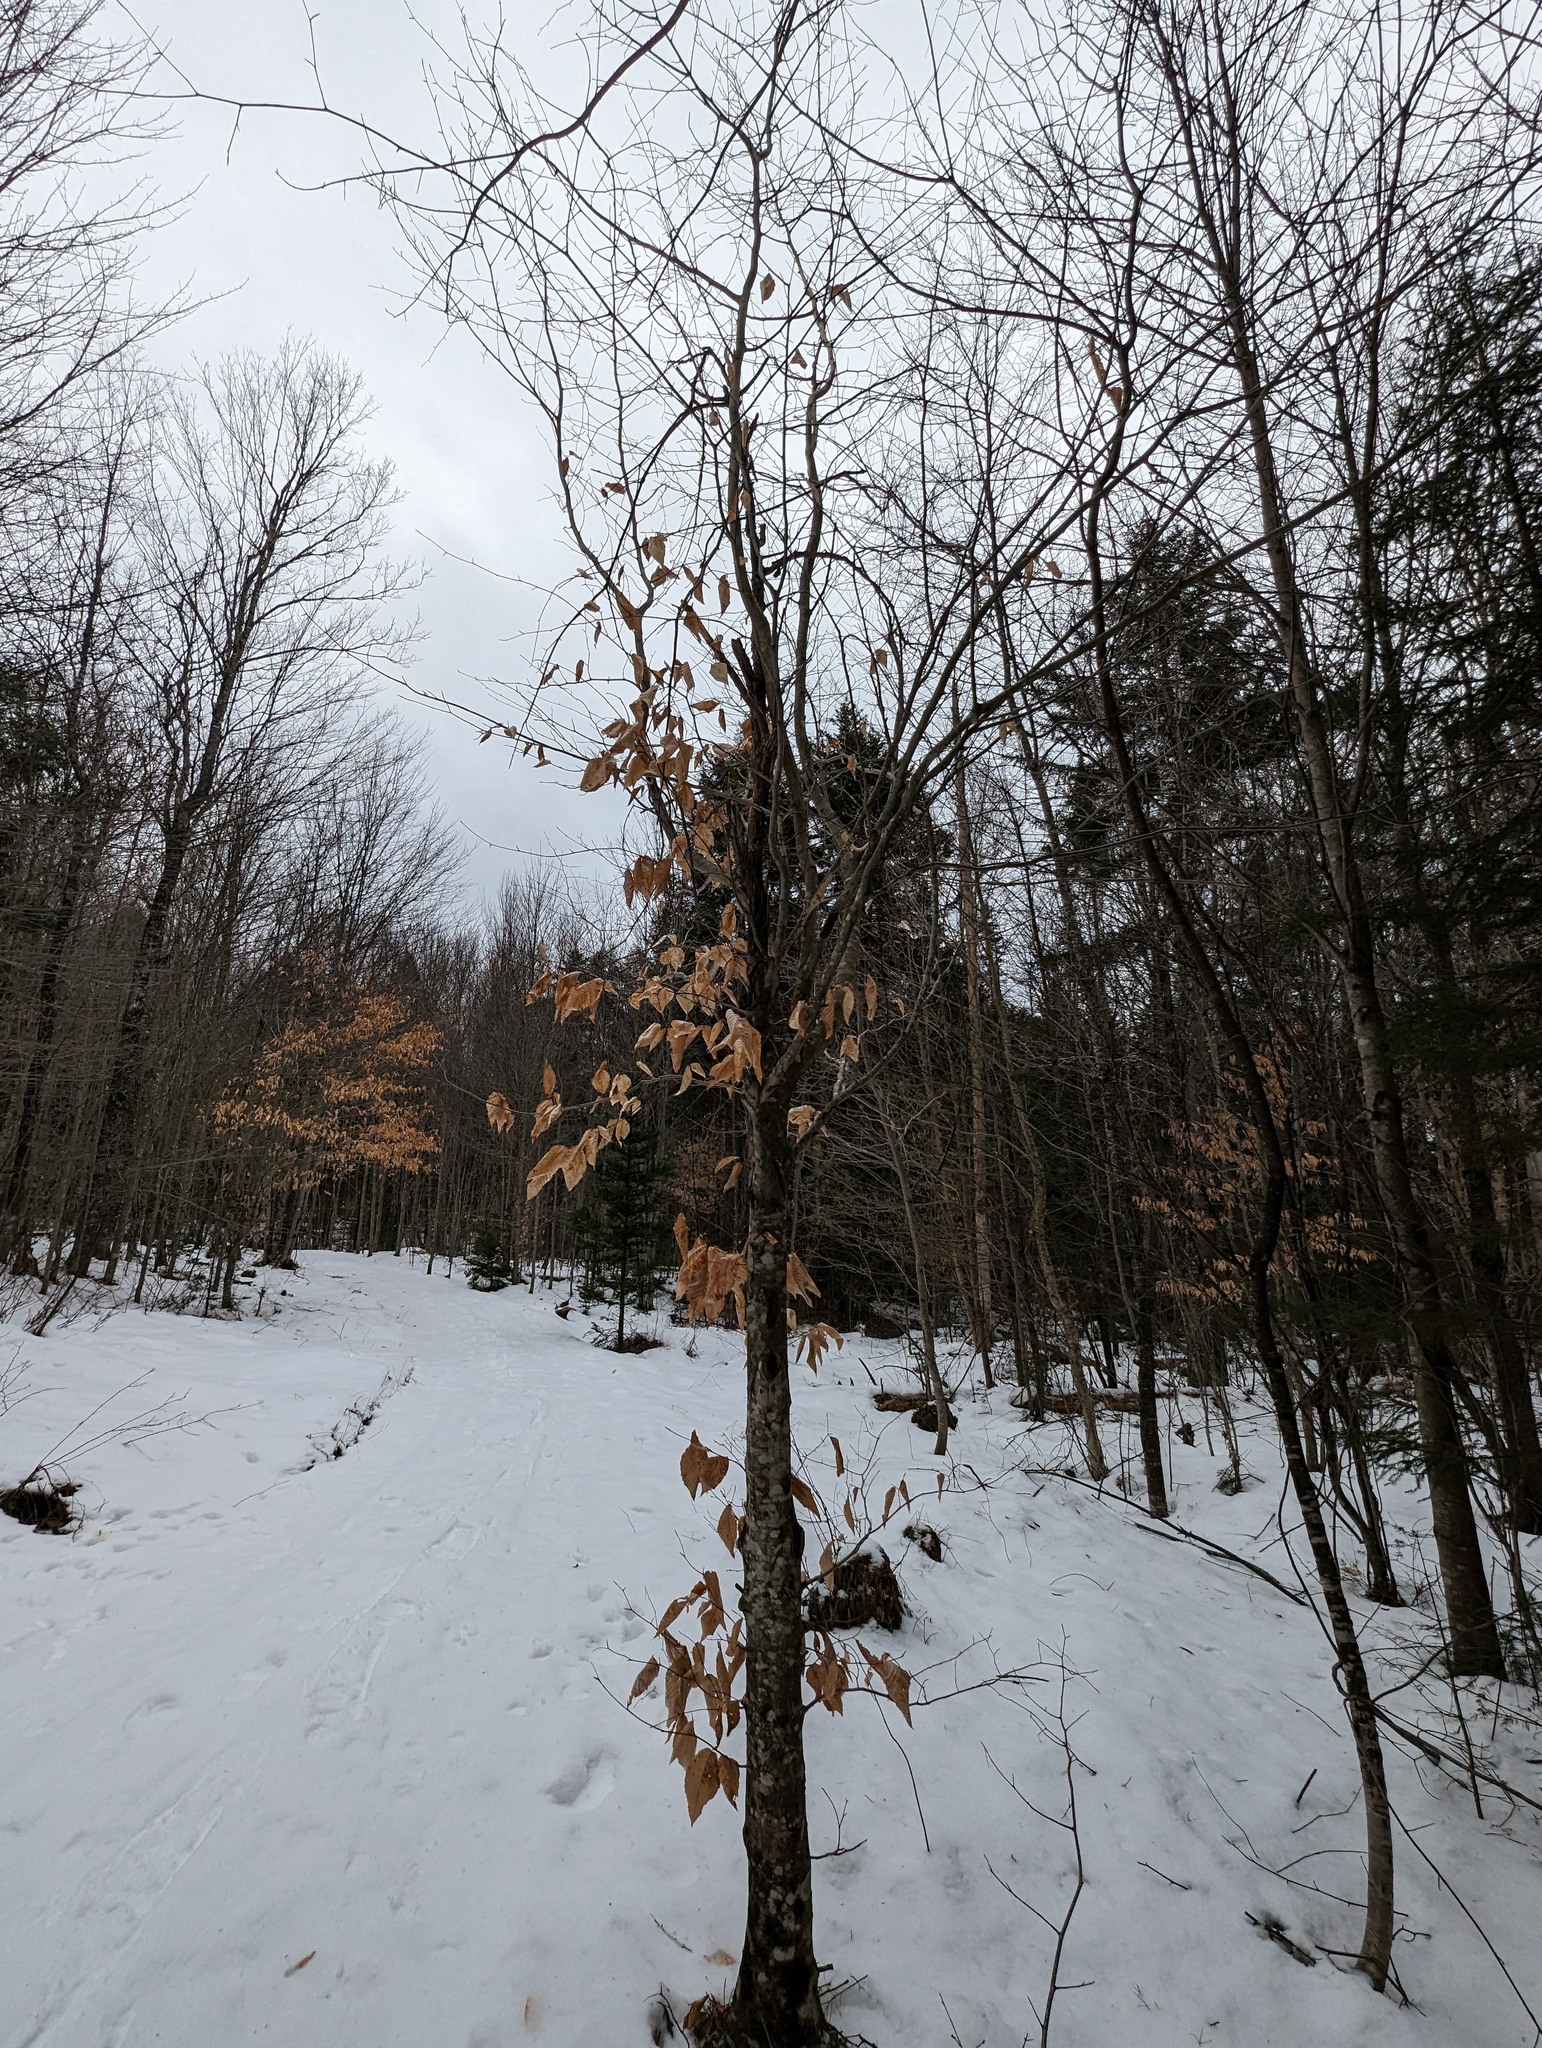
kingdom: Plantae
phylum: Tracheophyta
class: Magnoliopsida
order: Fagales
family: Fagaceae
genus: Fagus
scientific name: Fagus grandifolia
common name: American beech
